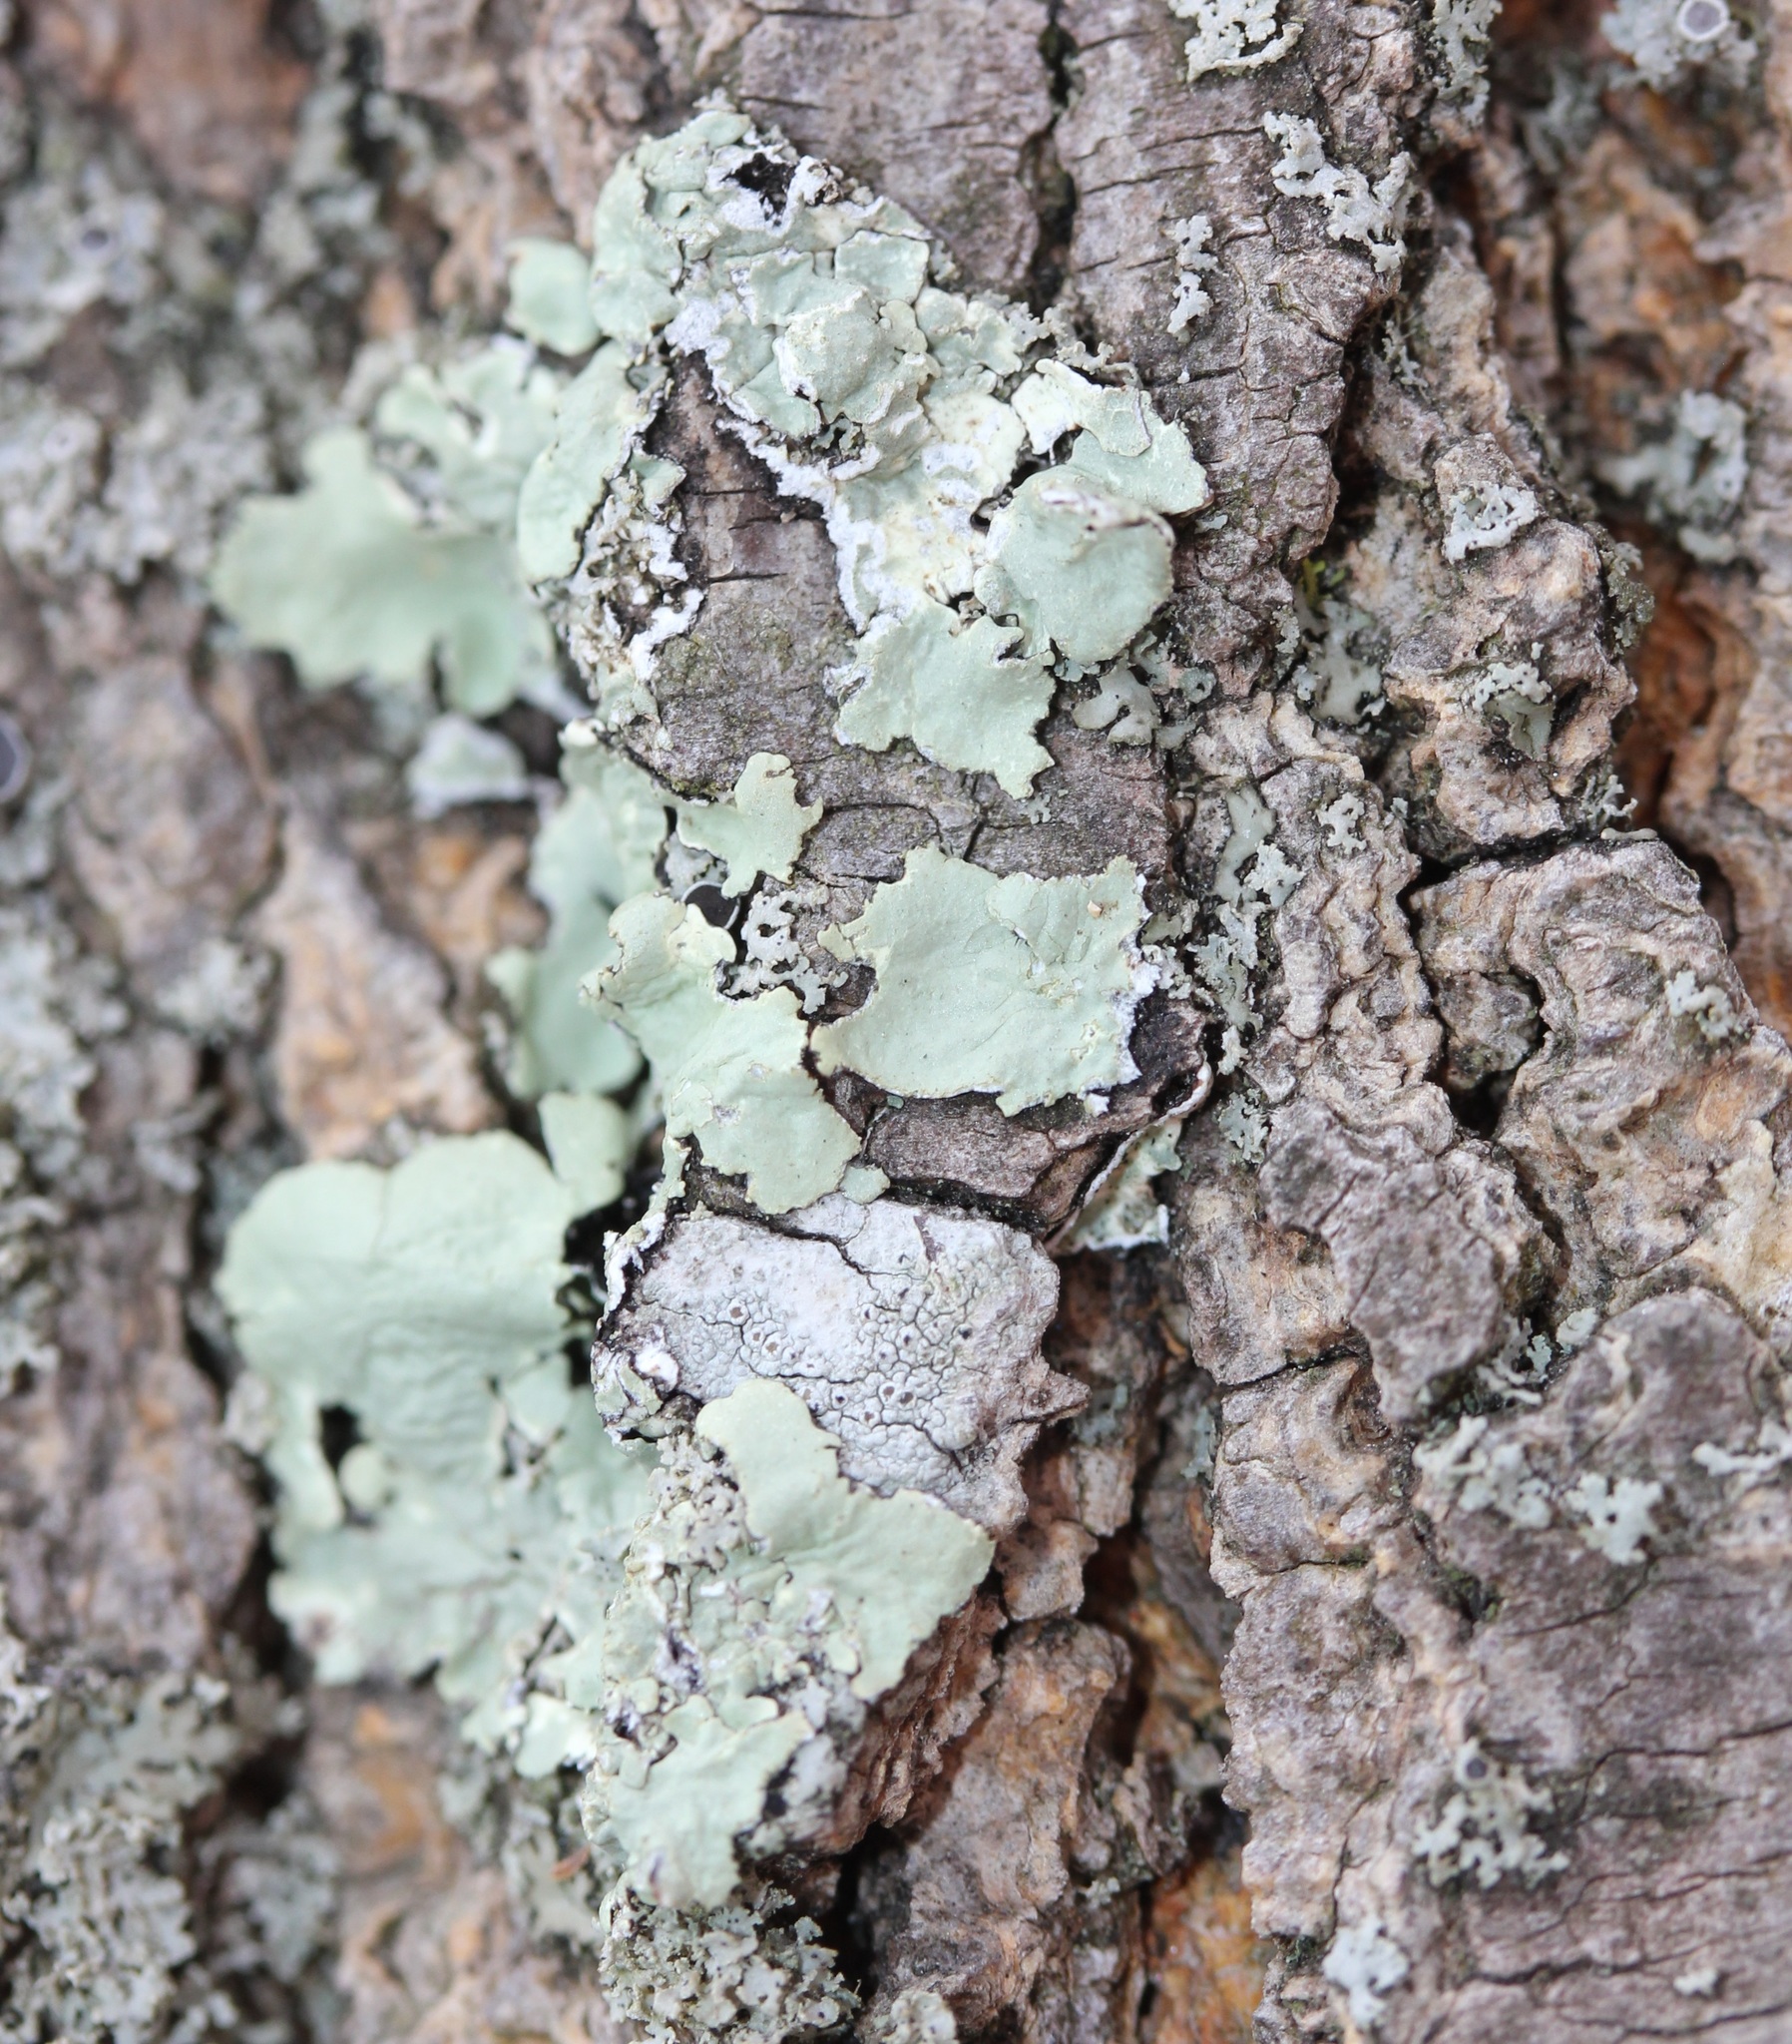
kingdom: Fungi
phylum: Ascomycota
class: Lecanoromycetes
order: Lecanorales
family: Parmeliaceae
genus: Flavoparmelia
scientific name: Flavoparmelia caperata
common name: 40-mile per hour lichen
